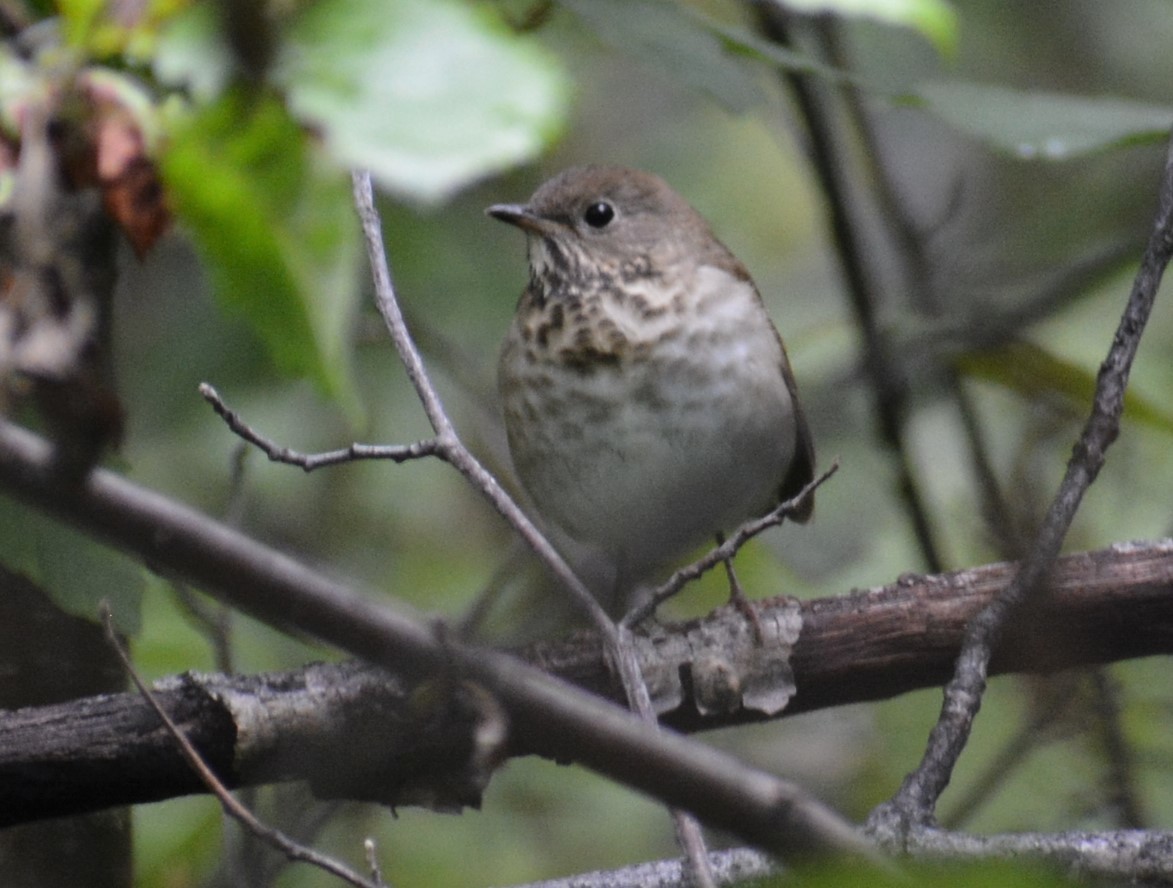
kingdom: Animalia
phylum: Chordata
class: Aves
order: Passeriformes
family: Turdidae
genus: Catharus
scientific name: Catharus minimus
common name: Grey-cheeked thrush
